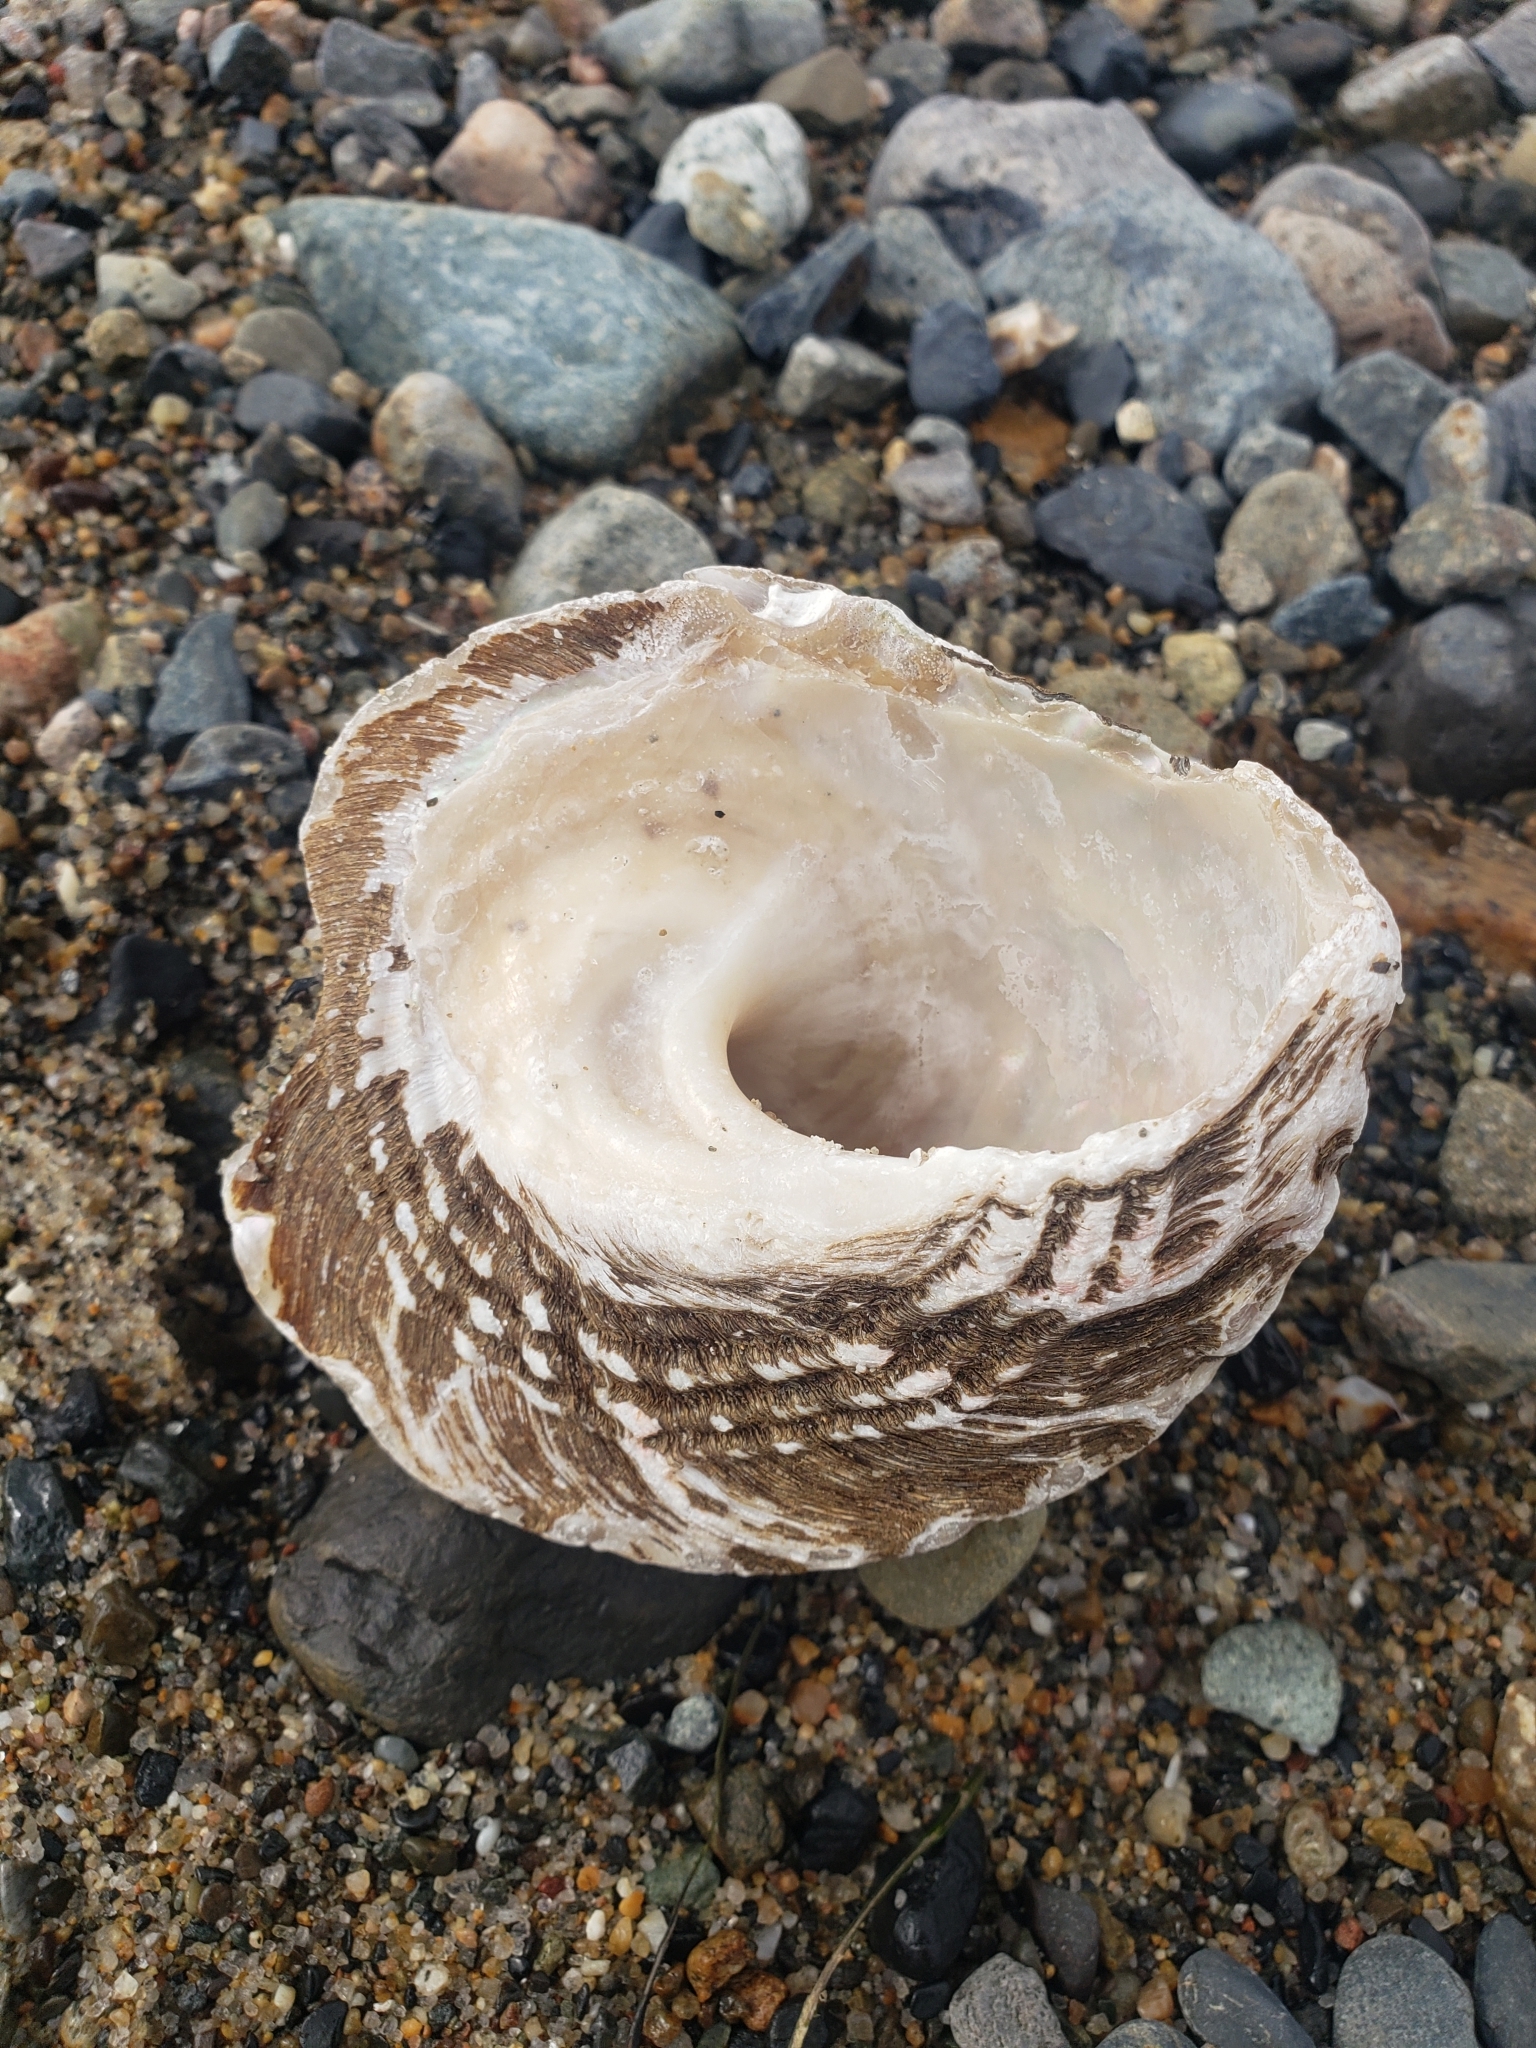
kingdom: Animalia
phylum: Mollusca
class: Gastropoda
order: Trochida
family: Turbinidae
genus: Megastraea
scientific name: Megastraea undosa
